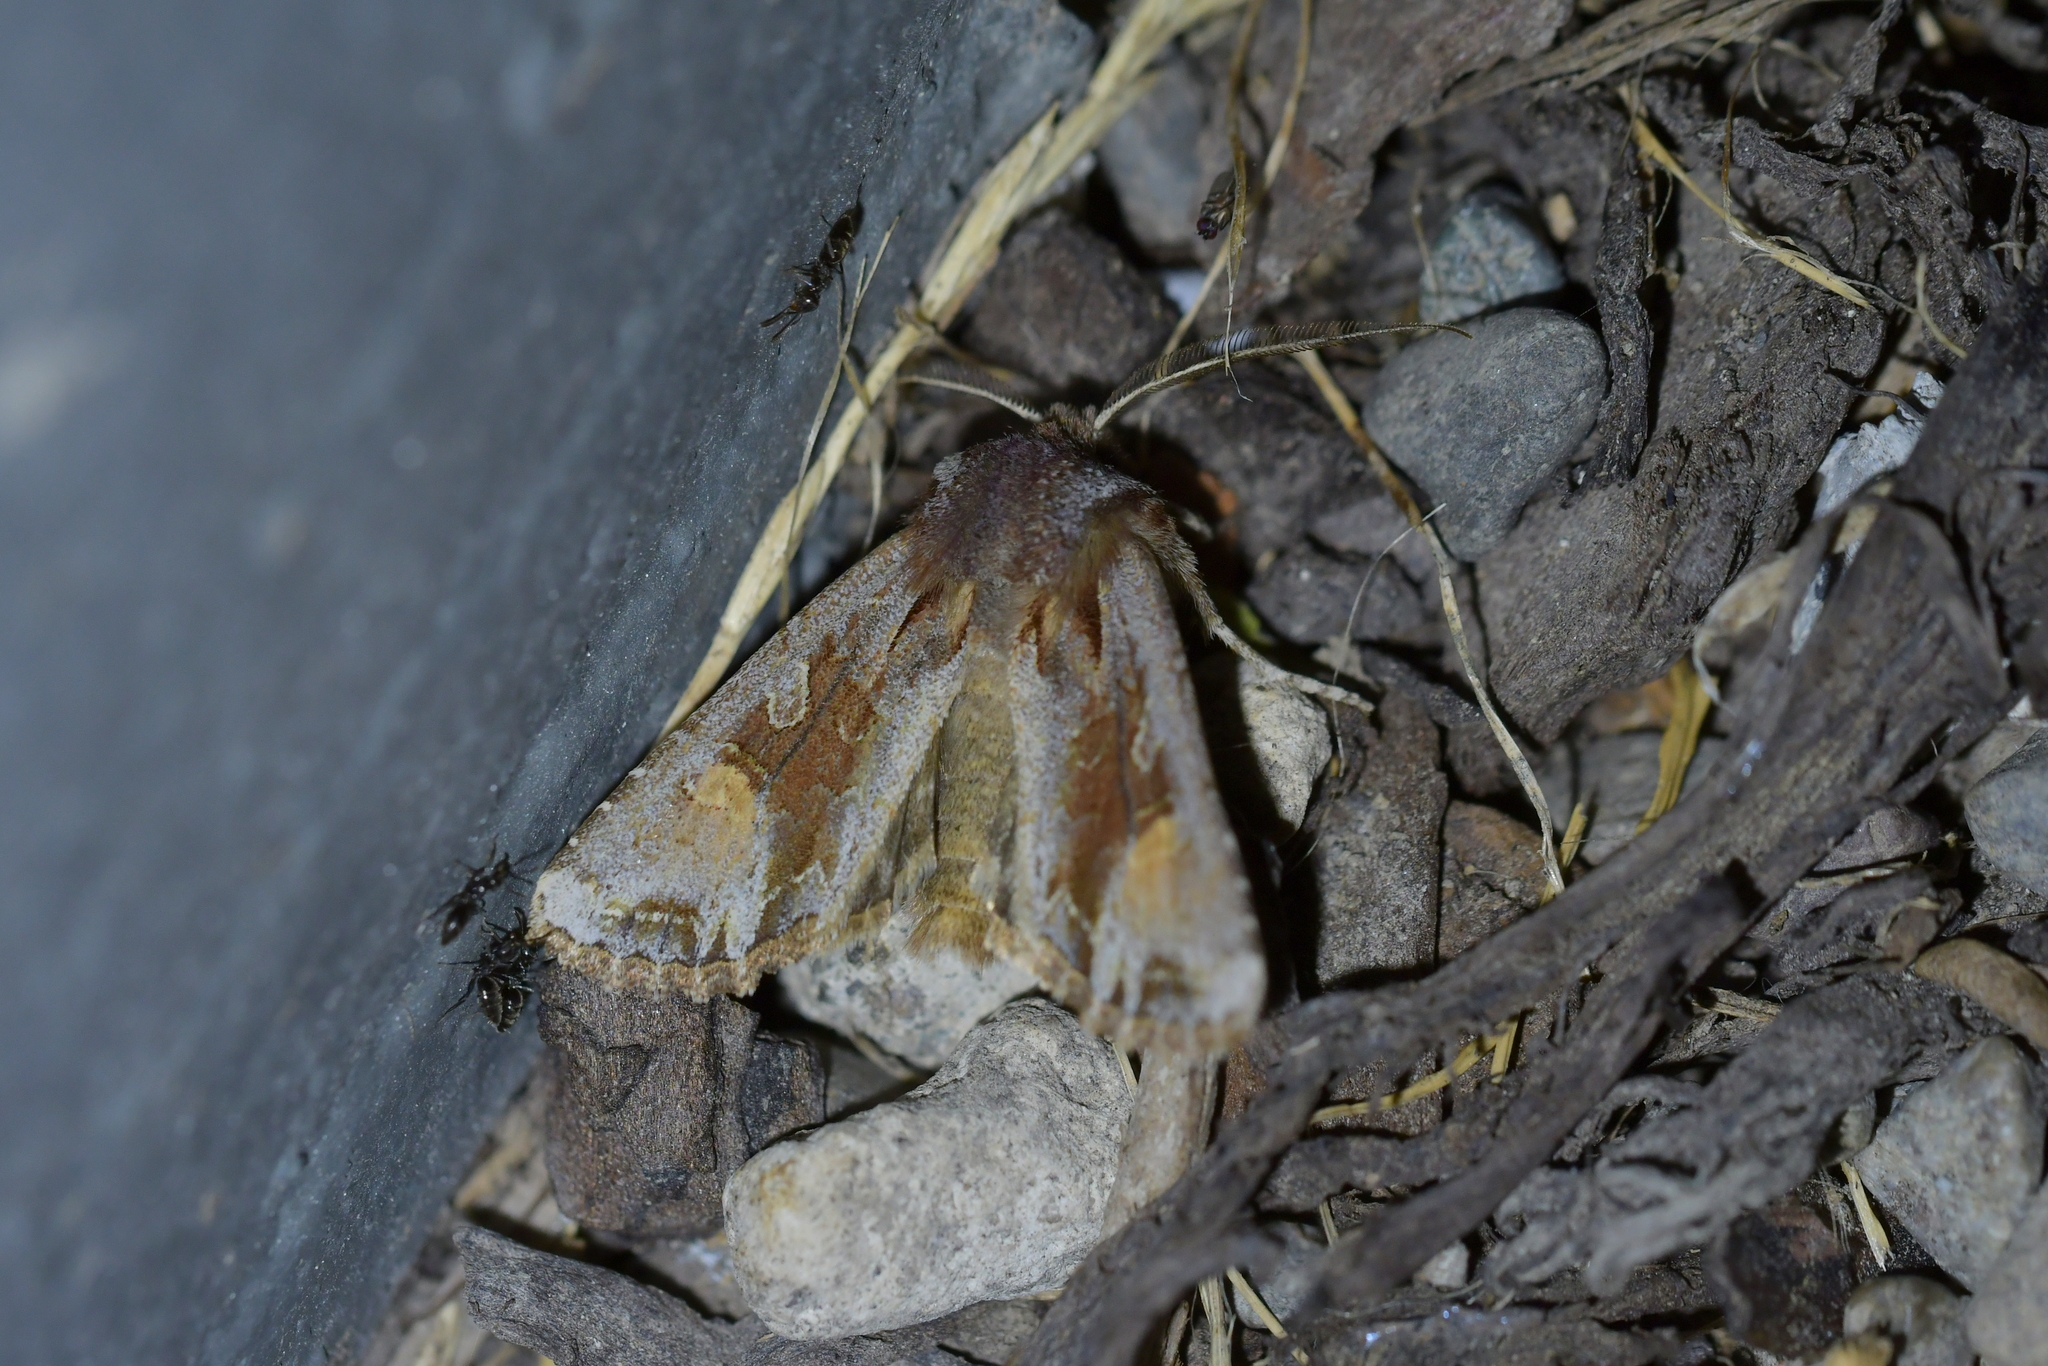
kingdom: Animalia
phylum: Arthropoda
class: Insecta
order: Lepidoptera
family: Noctuidae
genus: Ichneutica
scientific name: Ichneutica
